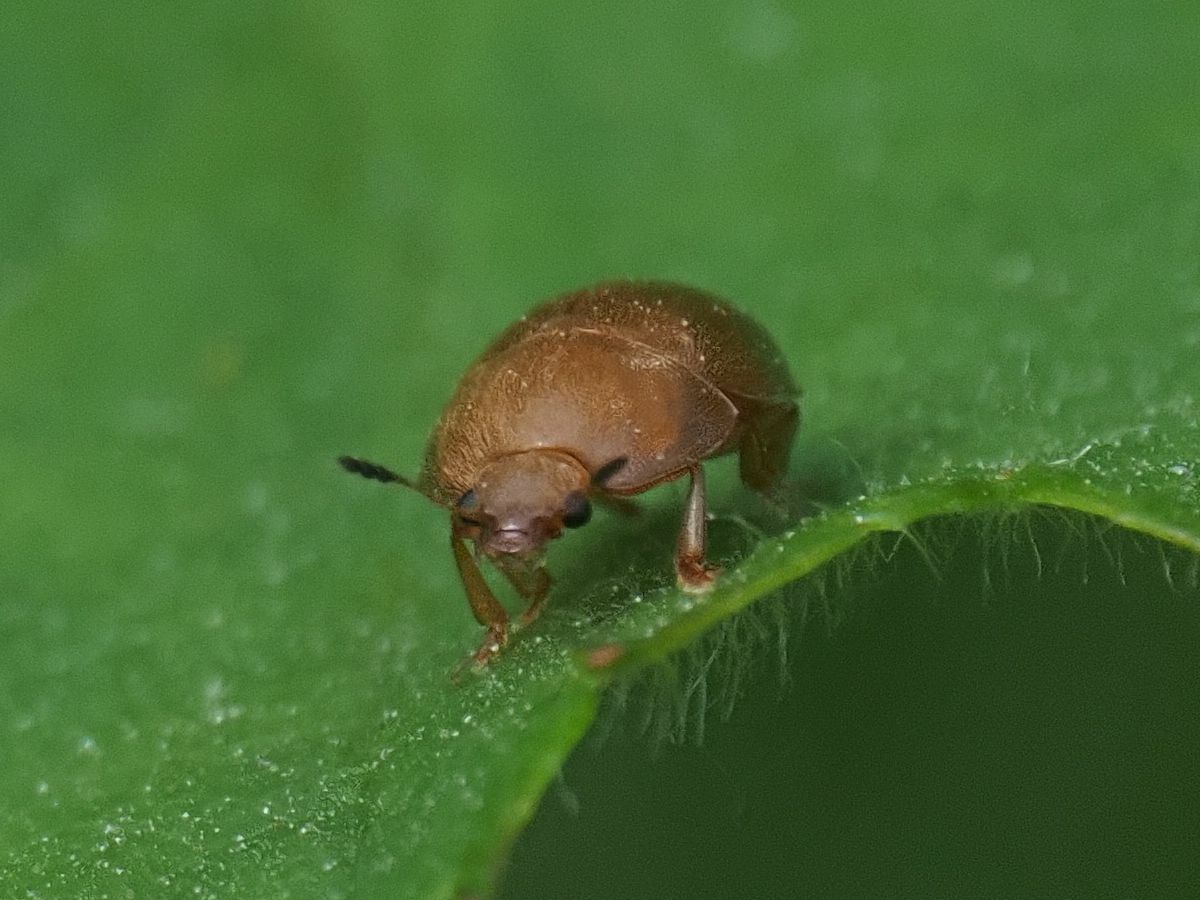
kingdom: Animalia
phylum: Arthropoda
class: Insecta
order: Coleoptera
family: Nitidulidae
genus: Cychramus
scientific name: Cychramus luteus
